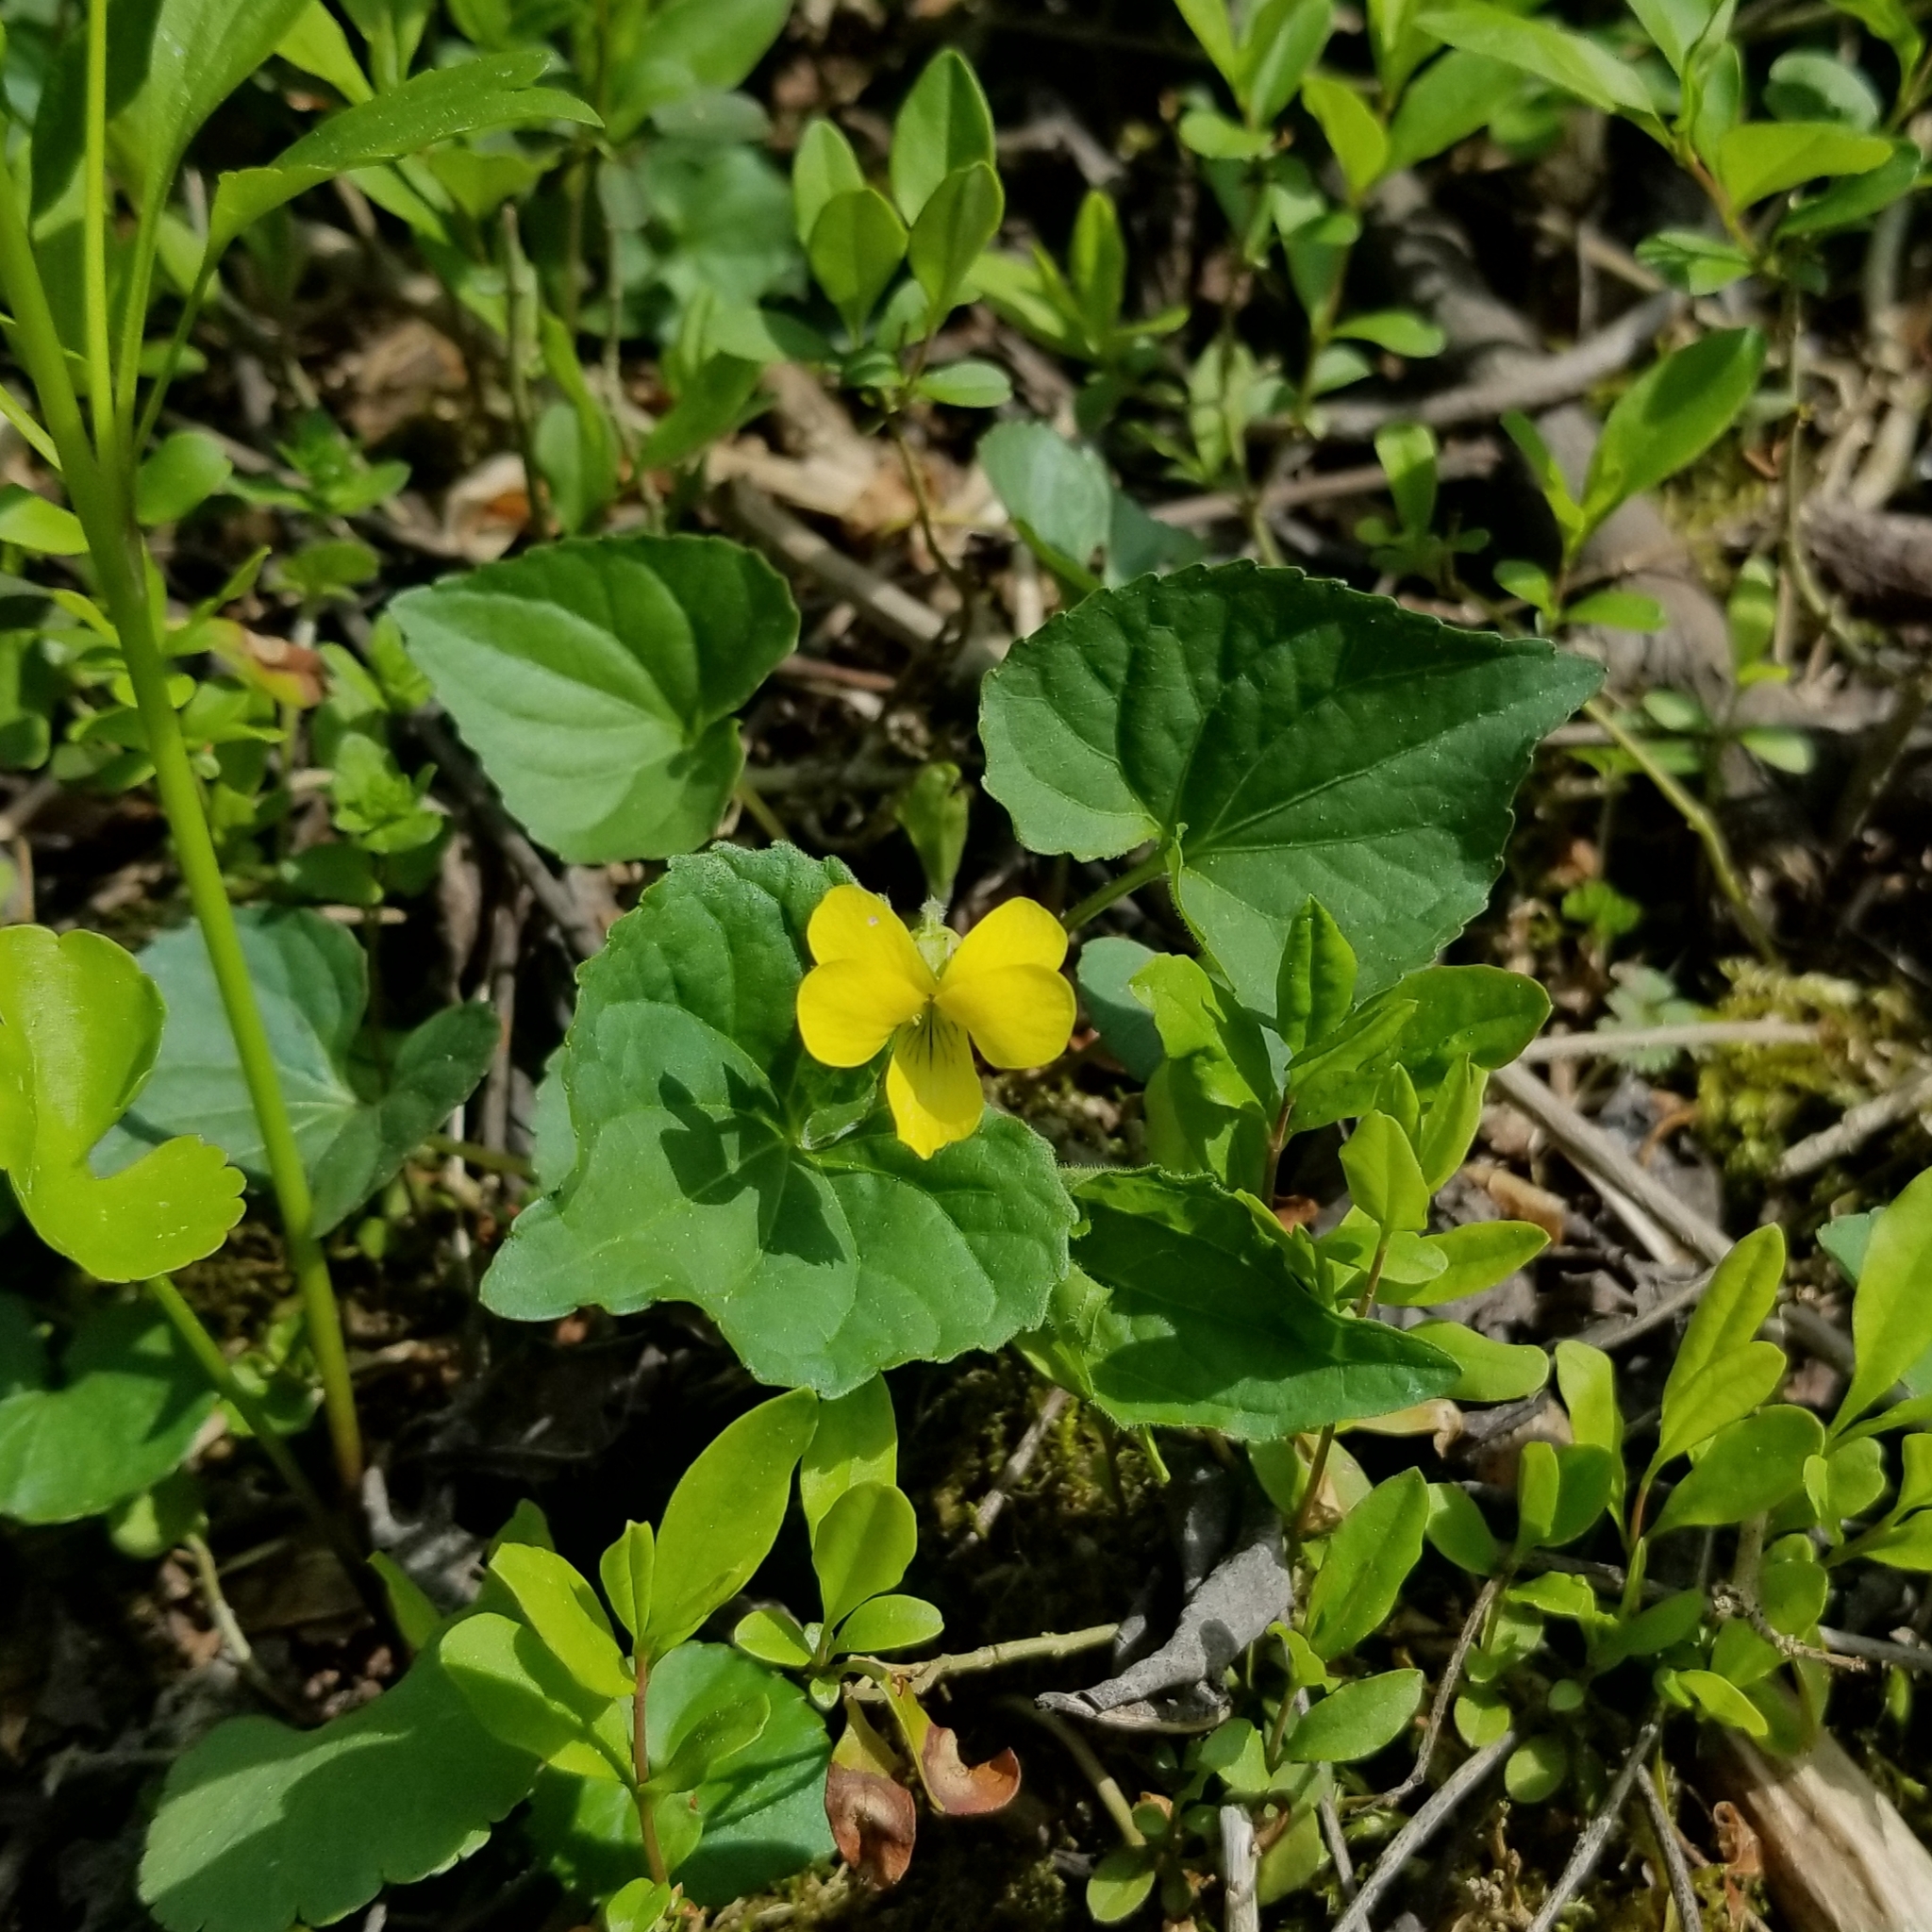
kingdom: Plantae
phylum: Tracheophyta
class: Magnoliopsida
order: Malpighiales
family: Violaceae
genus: Viola
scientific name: Viola eriocarpa
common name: Smooth yellow violet
